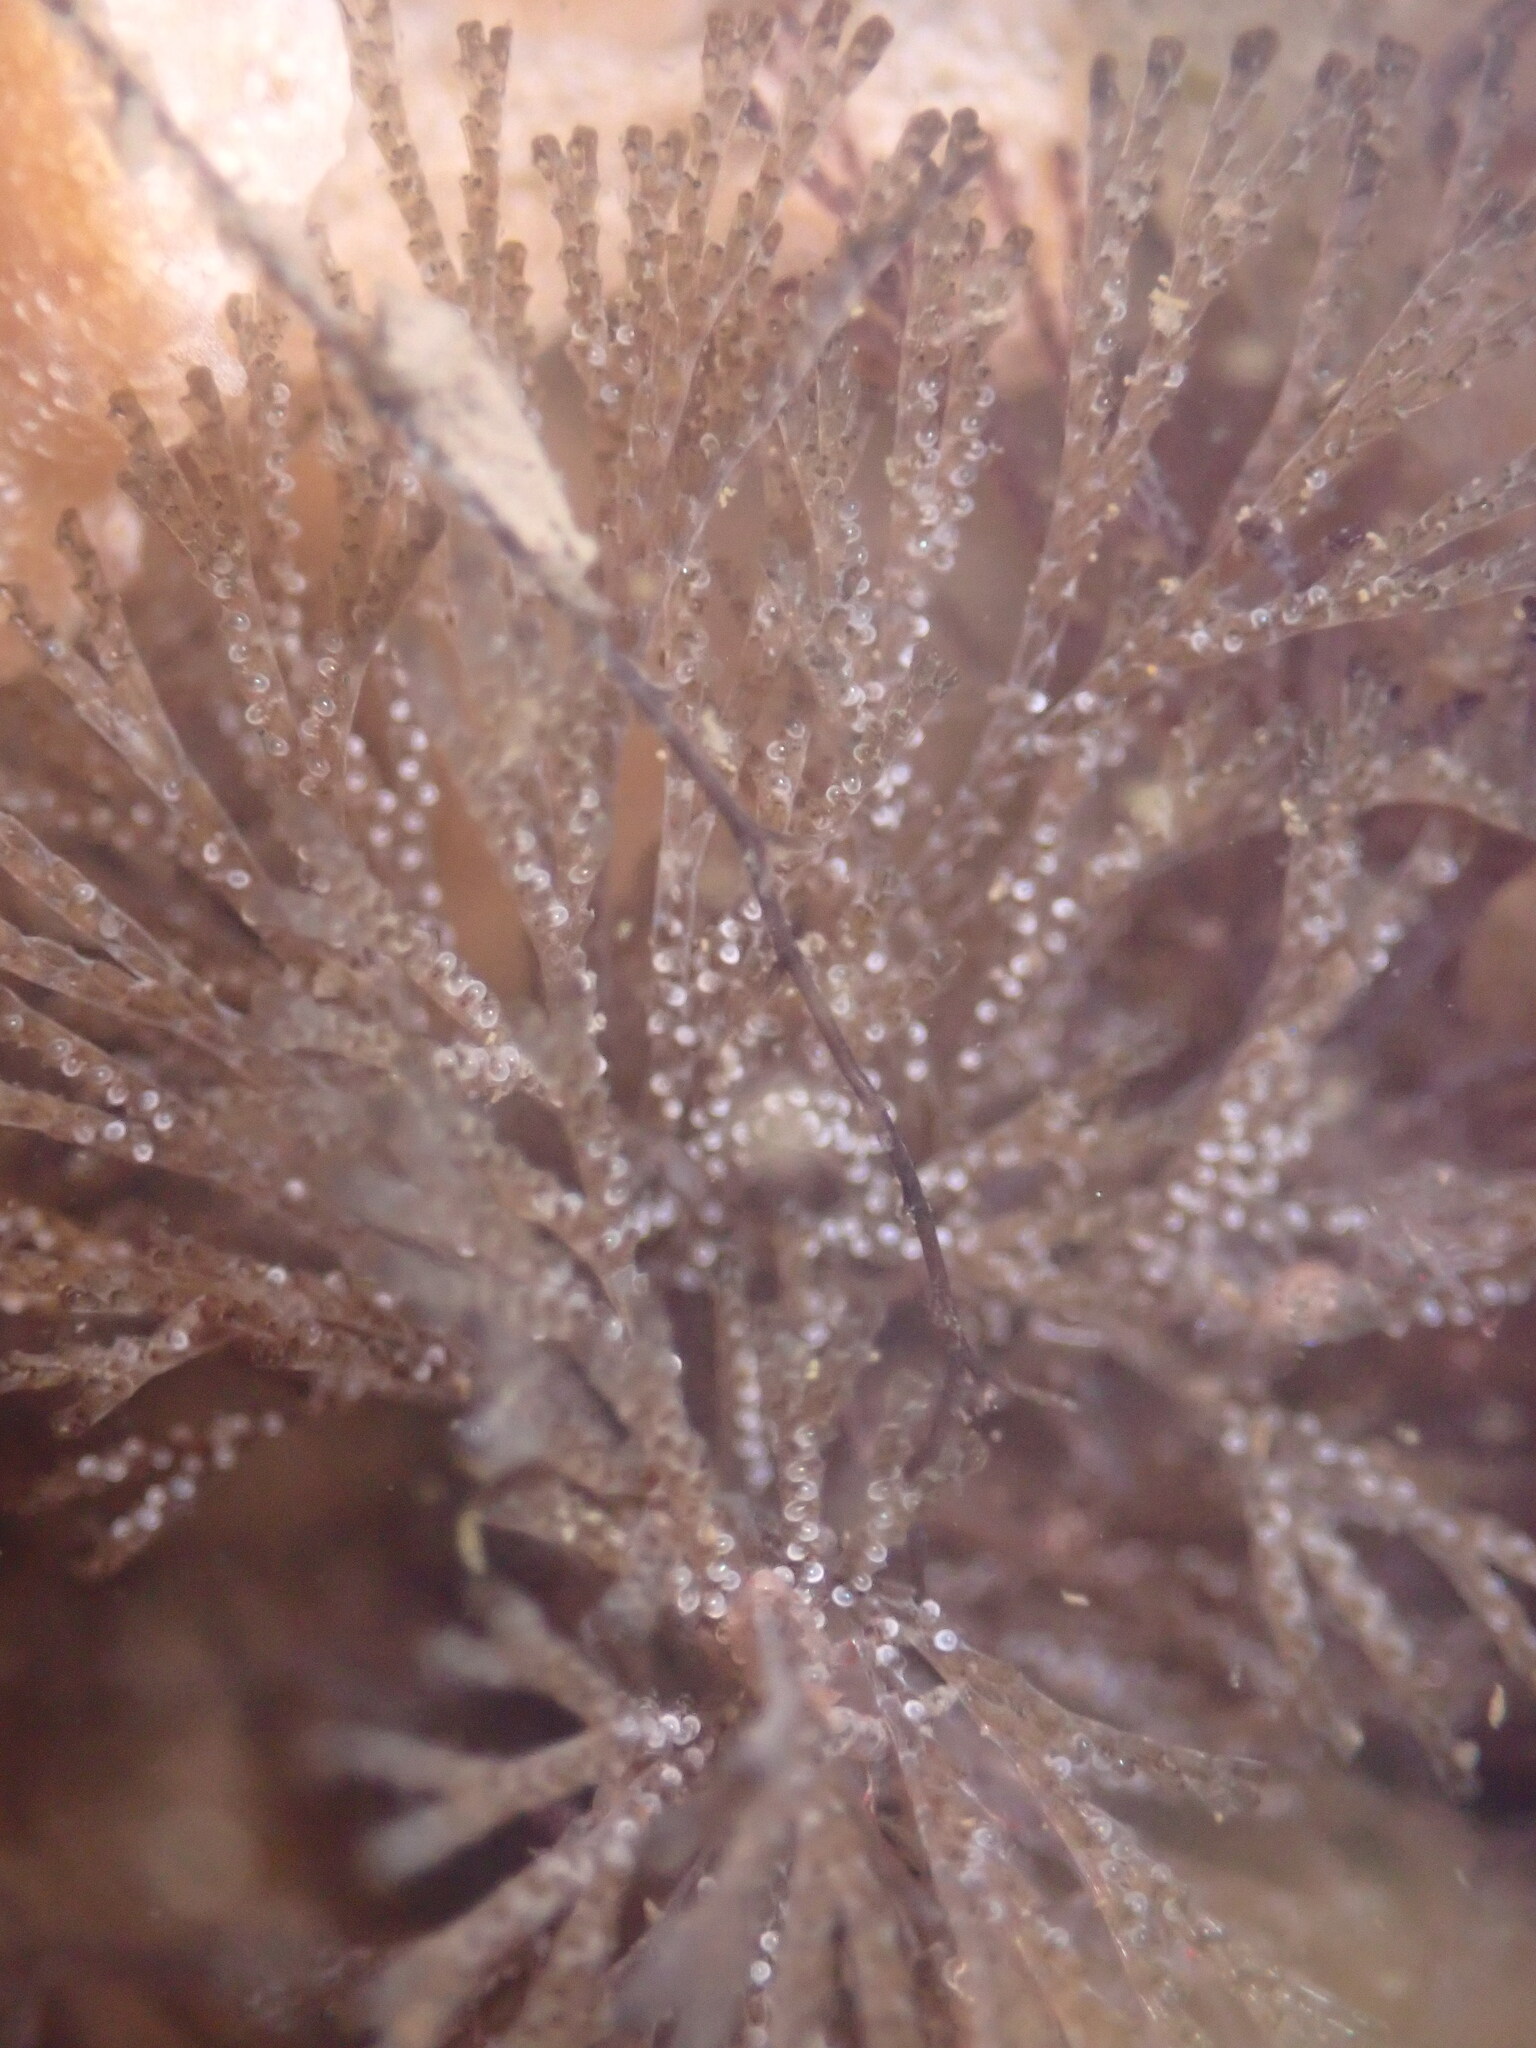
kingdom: Animalia
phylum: Bryozoa
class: Gymnolaemata
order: Cheilostomatida
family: Bugulidae
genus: Bugula
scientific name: Bugula neritina
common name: Brown bryozoan
